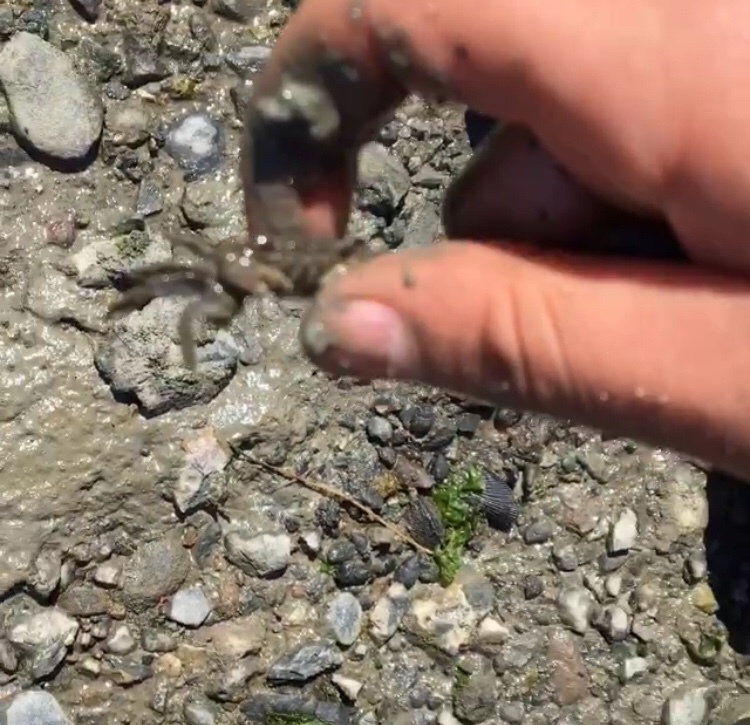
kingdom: Animalia
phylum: Arthropoda
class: Malacostraca
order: Decapoda
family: Varunidae
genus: Hemigrapsus
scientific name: Hemigrapsus oregonensis
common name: Yellow shore crab
